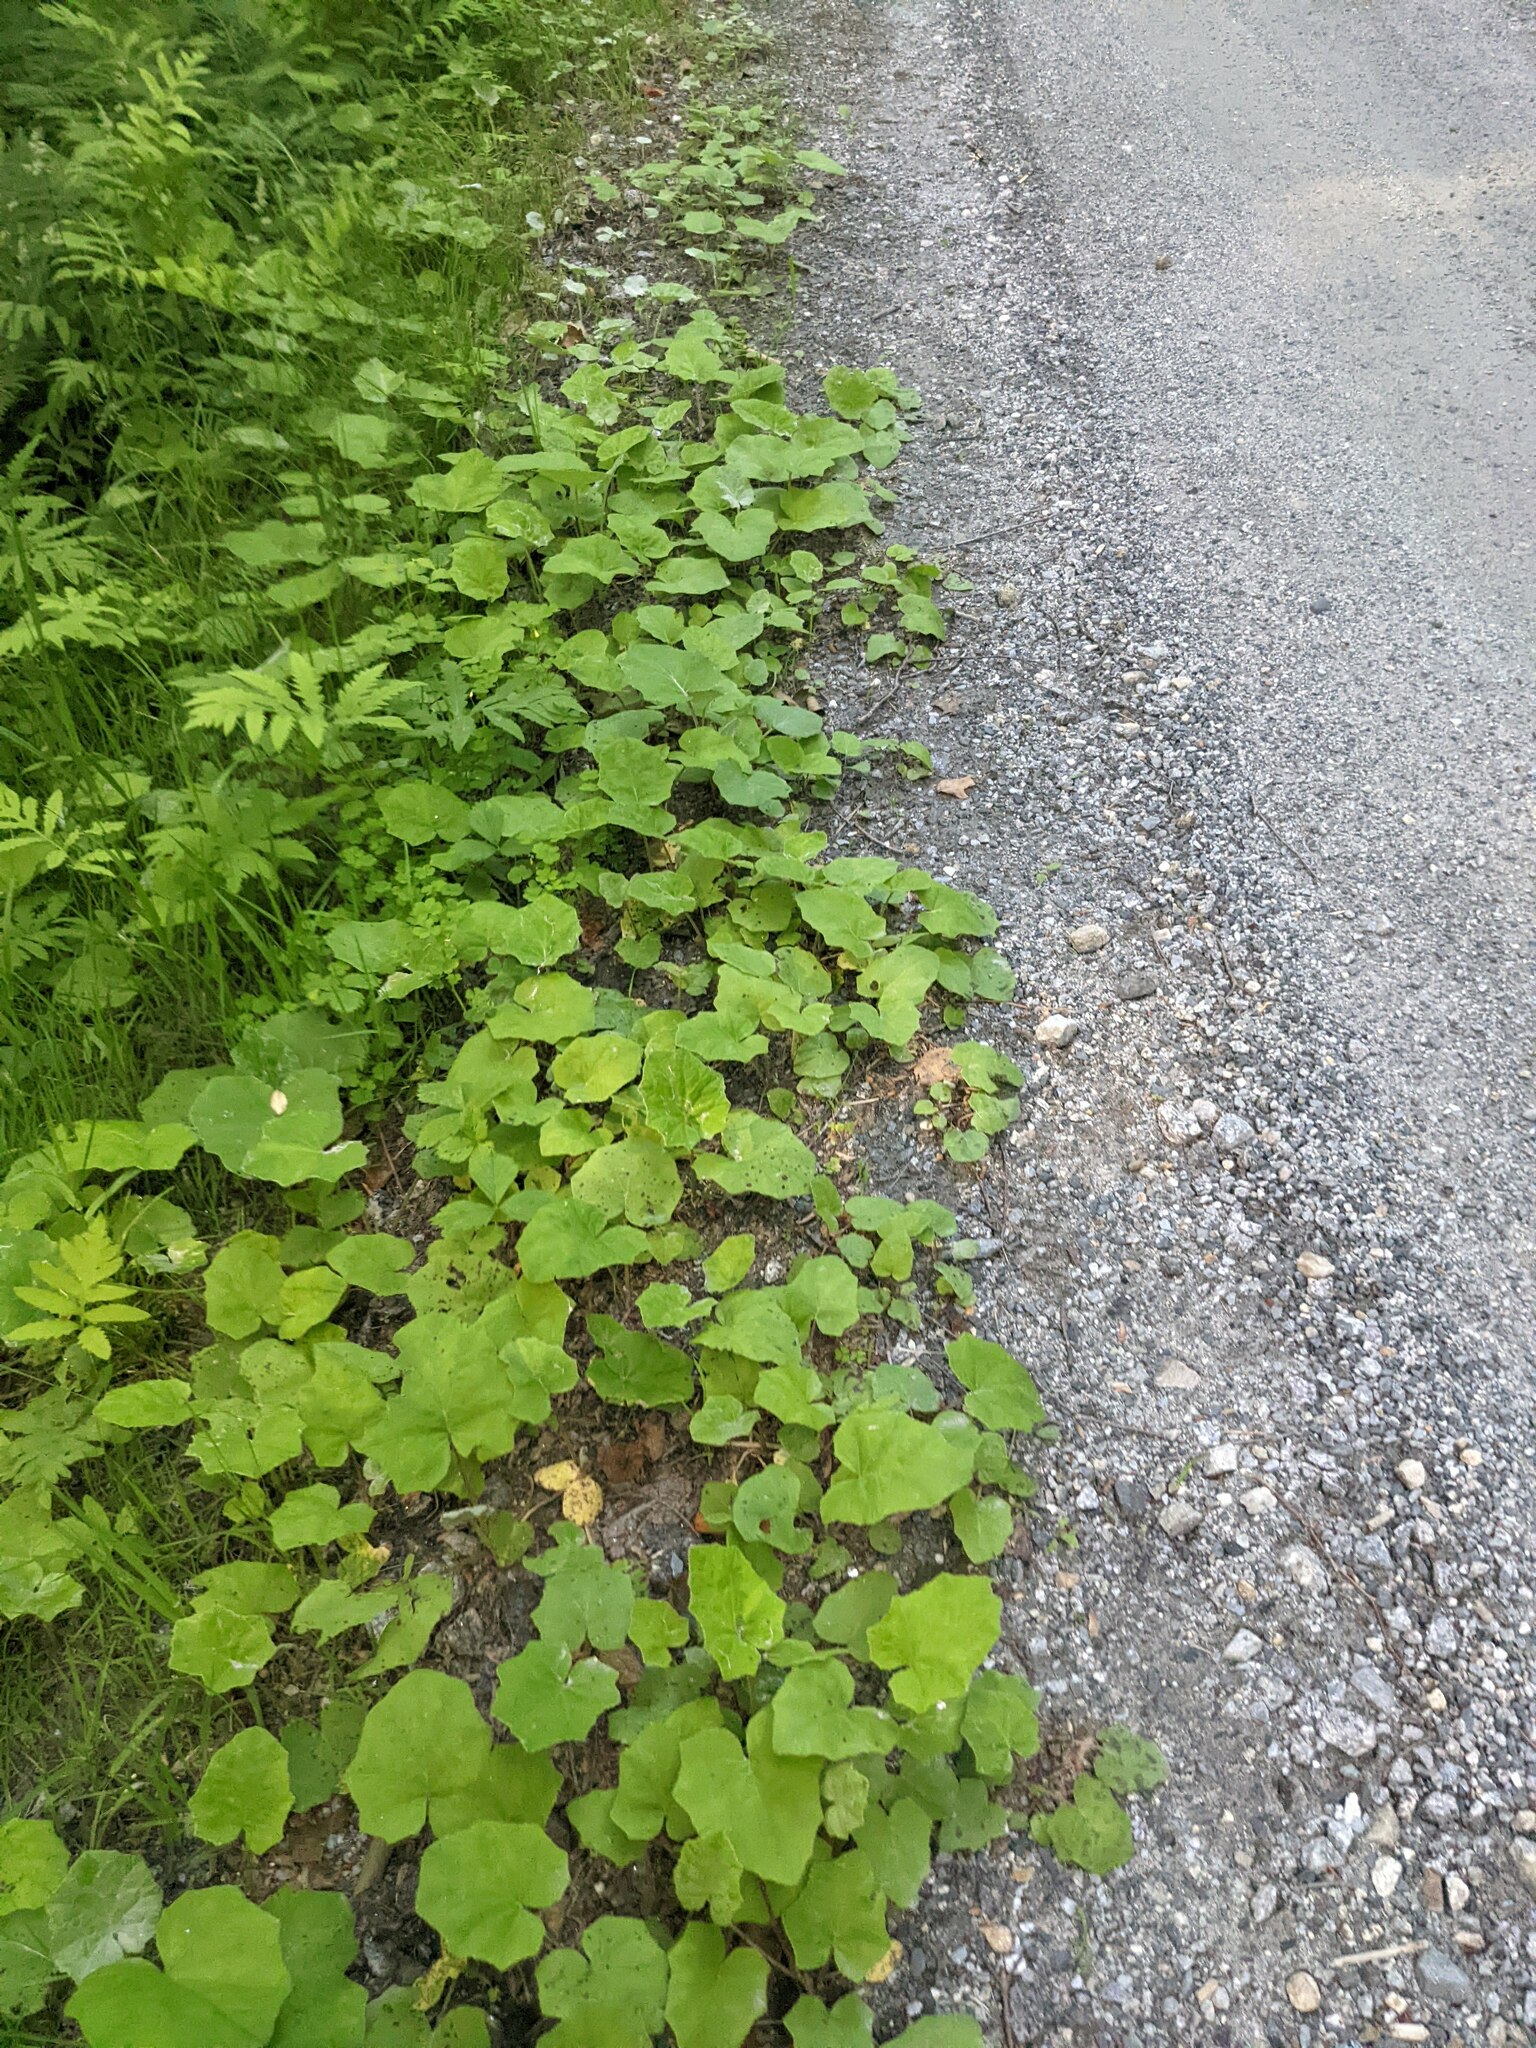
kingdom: Plantae
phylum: Tracheophyta
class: Magnoliopsida
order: Asterales
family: Asteraceae
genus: Tussilago
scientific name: Tussilago farfara
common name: Coltsfoot
